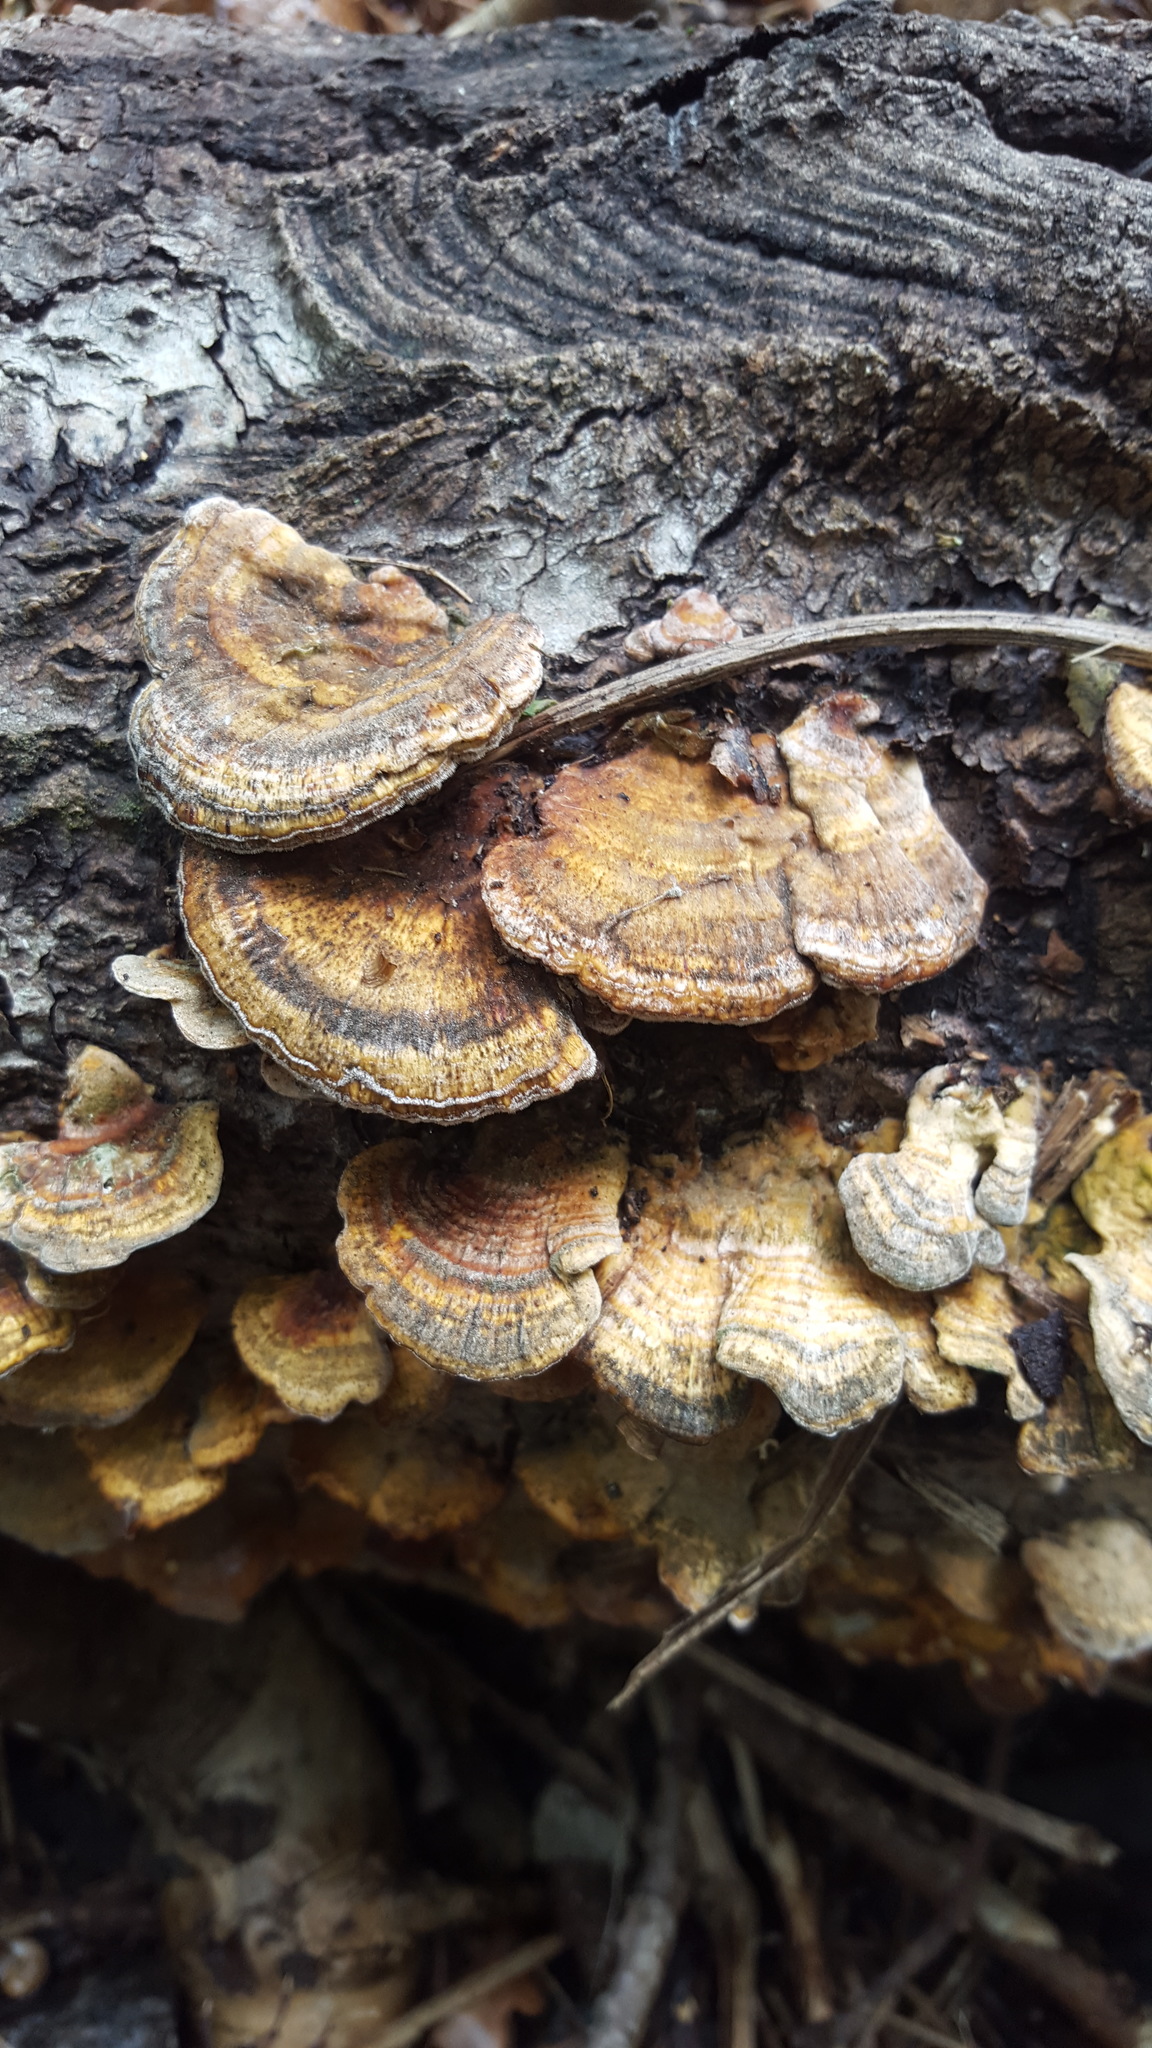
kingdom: Fungi
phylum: Basidiomycota
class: Agaricomycetes
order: Polyporales
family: Polyporaceae
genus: Trametes
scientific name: Trametes versicolor
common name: Turkeytail
